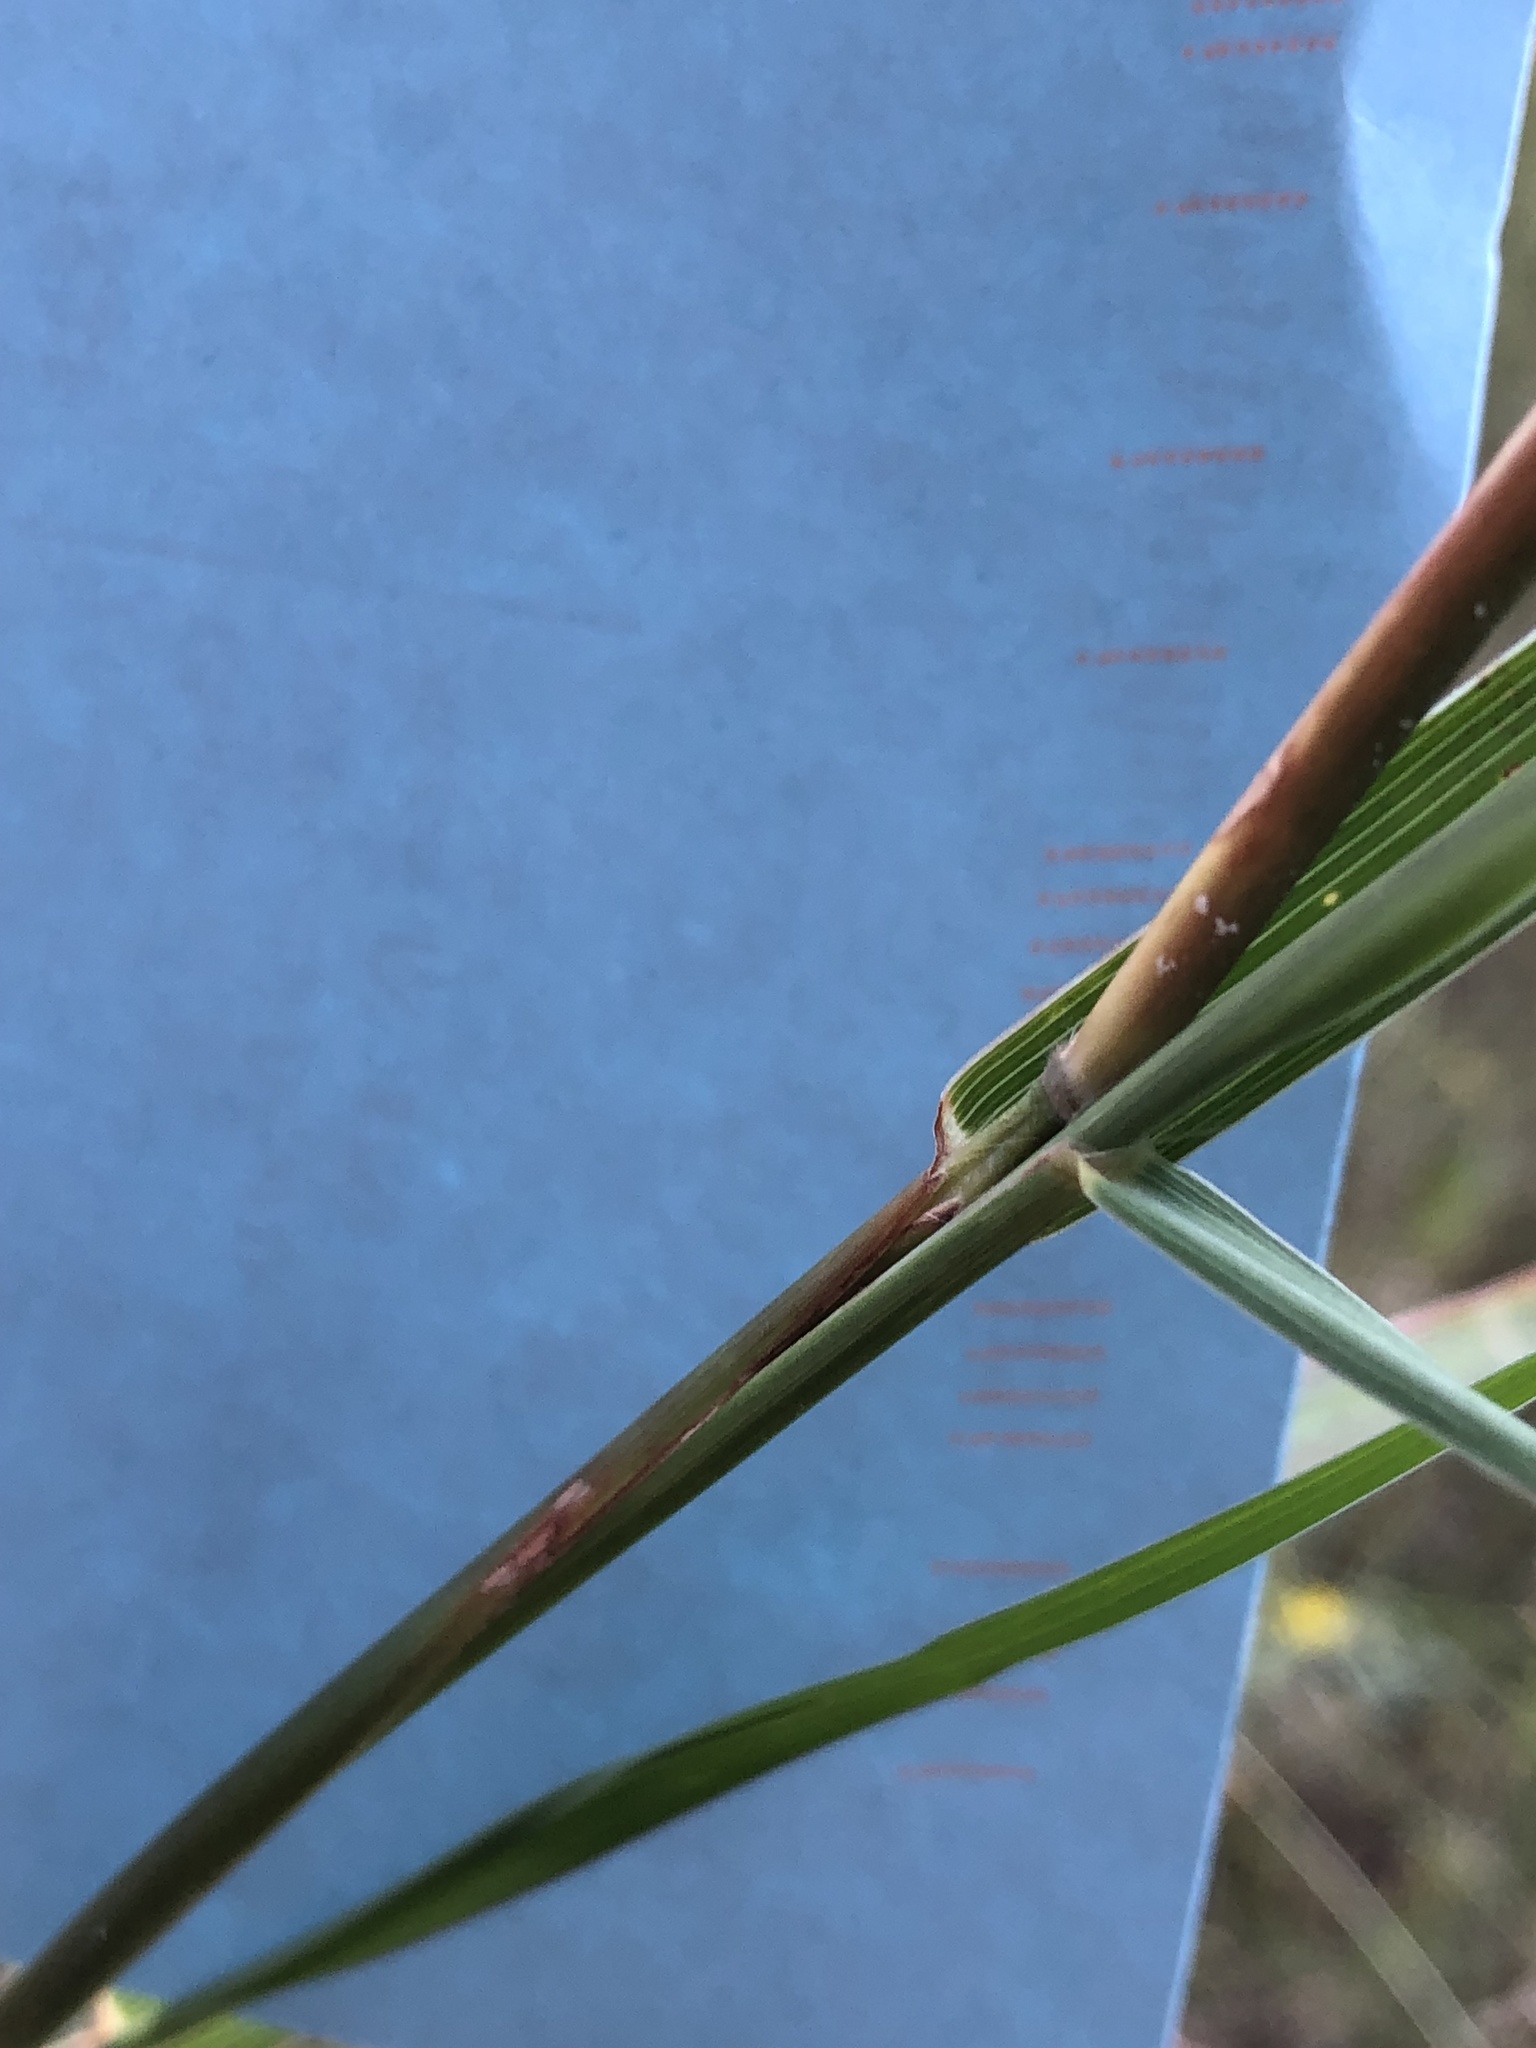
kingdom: Plantae
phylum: Tracheophyta
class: Liliopsida
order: Poales
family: Poaceae
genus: Bothriochloa
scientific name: Bothriochloa barbinodis
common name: Cane bluestem
